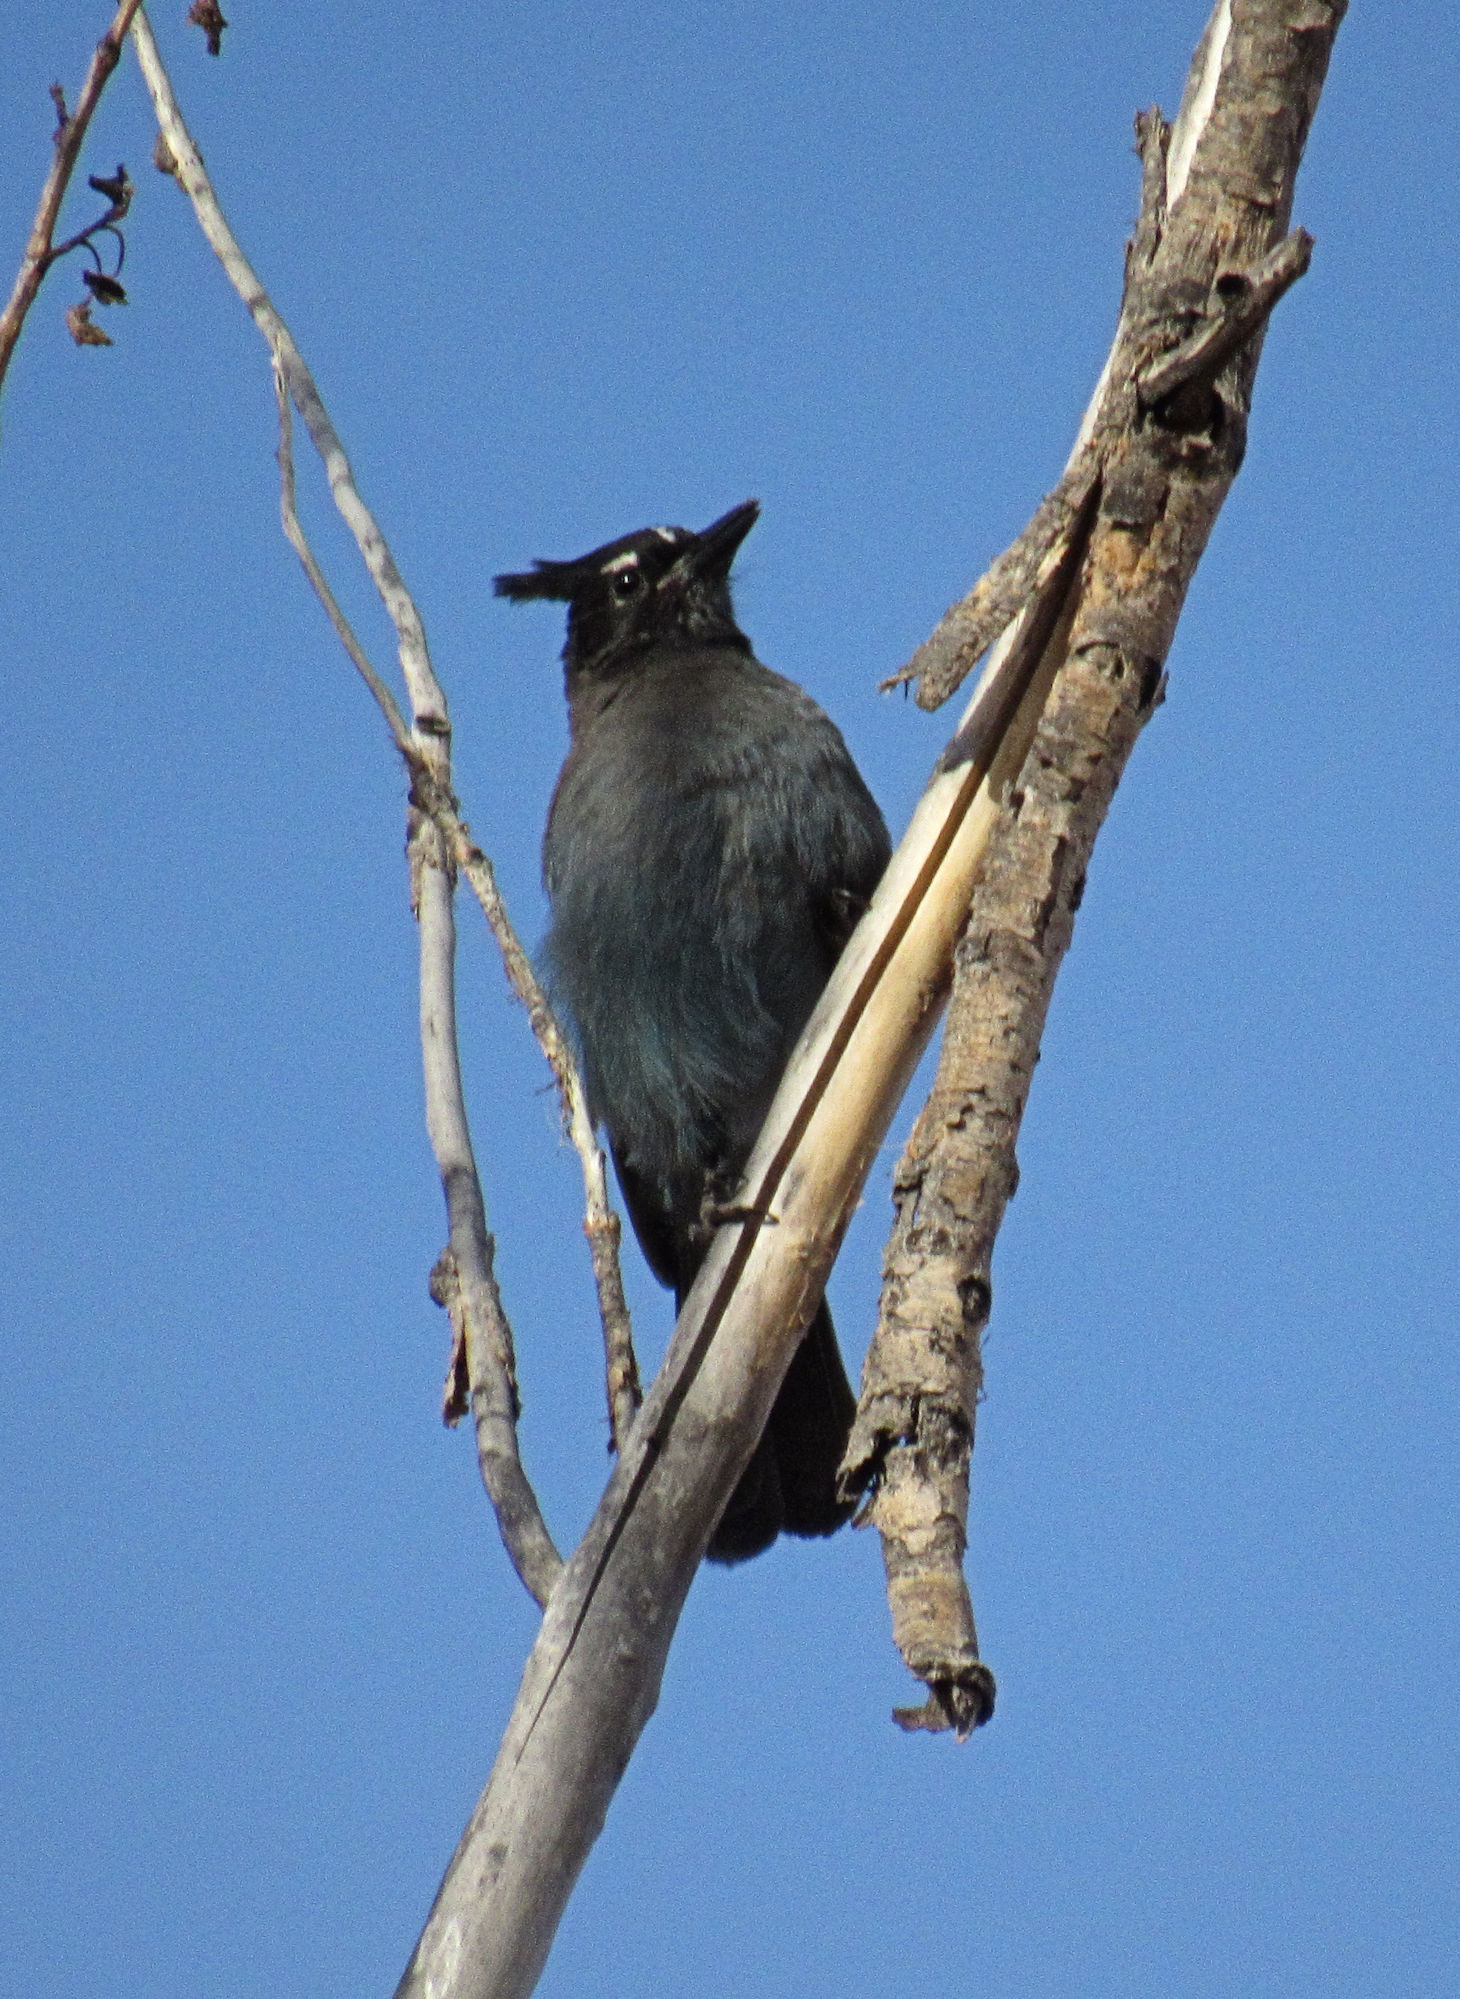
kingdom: Animalia
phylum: Chordata
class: Aves
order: Passeriformes
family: Corvidae
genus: Cyanocitta
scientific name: Cyanocitta stelleri
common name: Steller's jay
